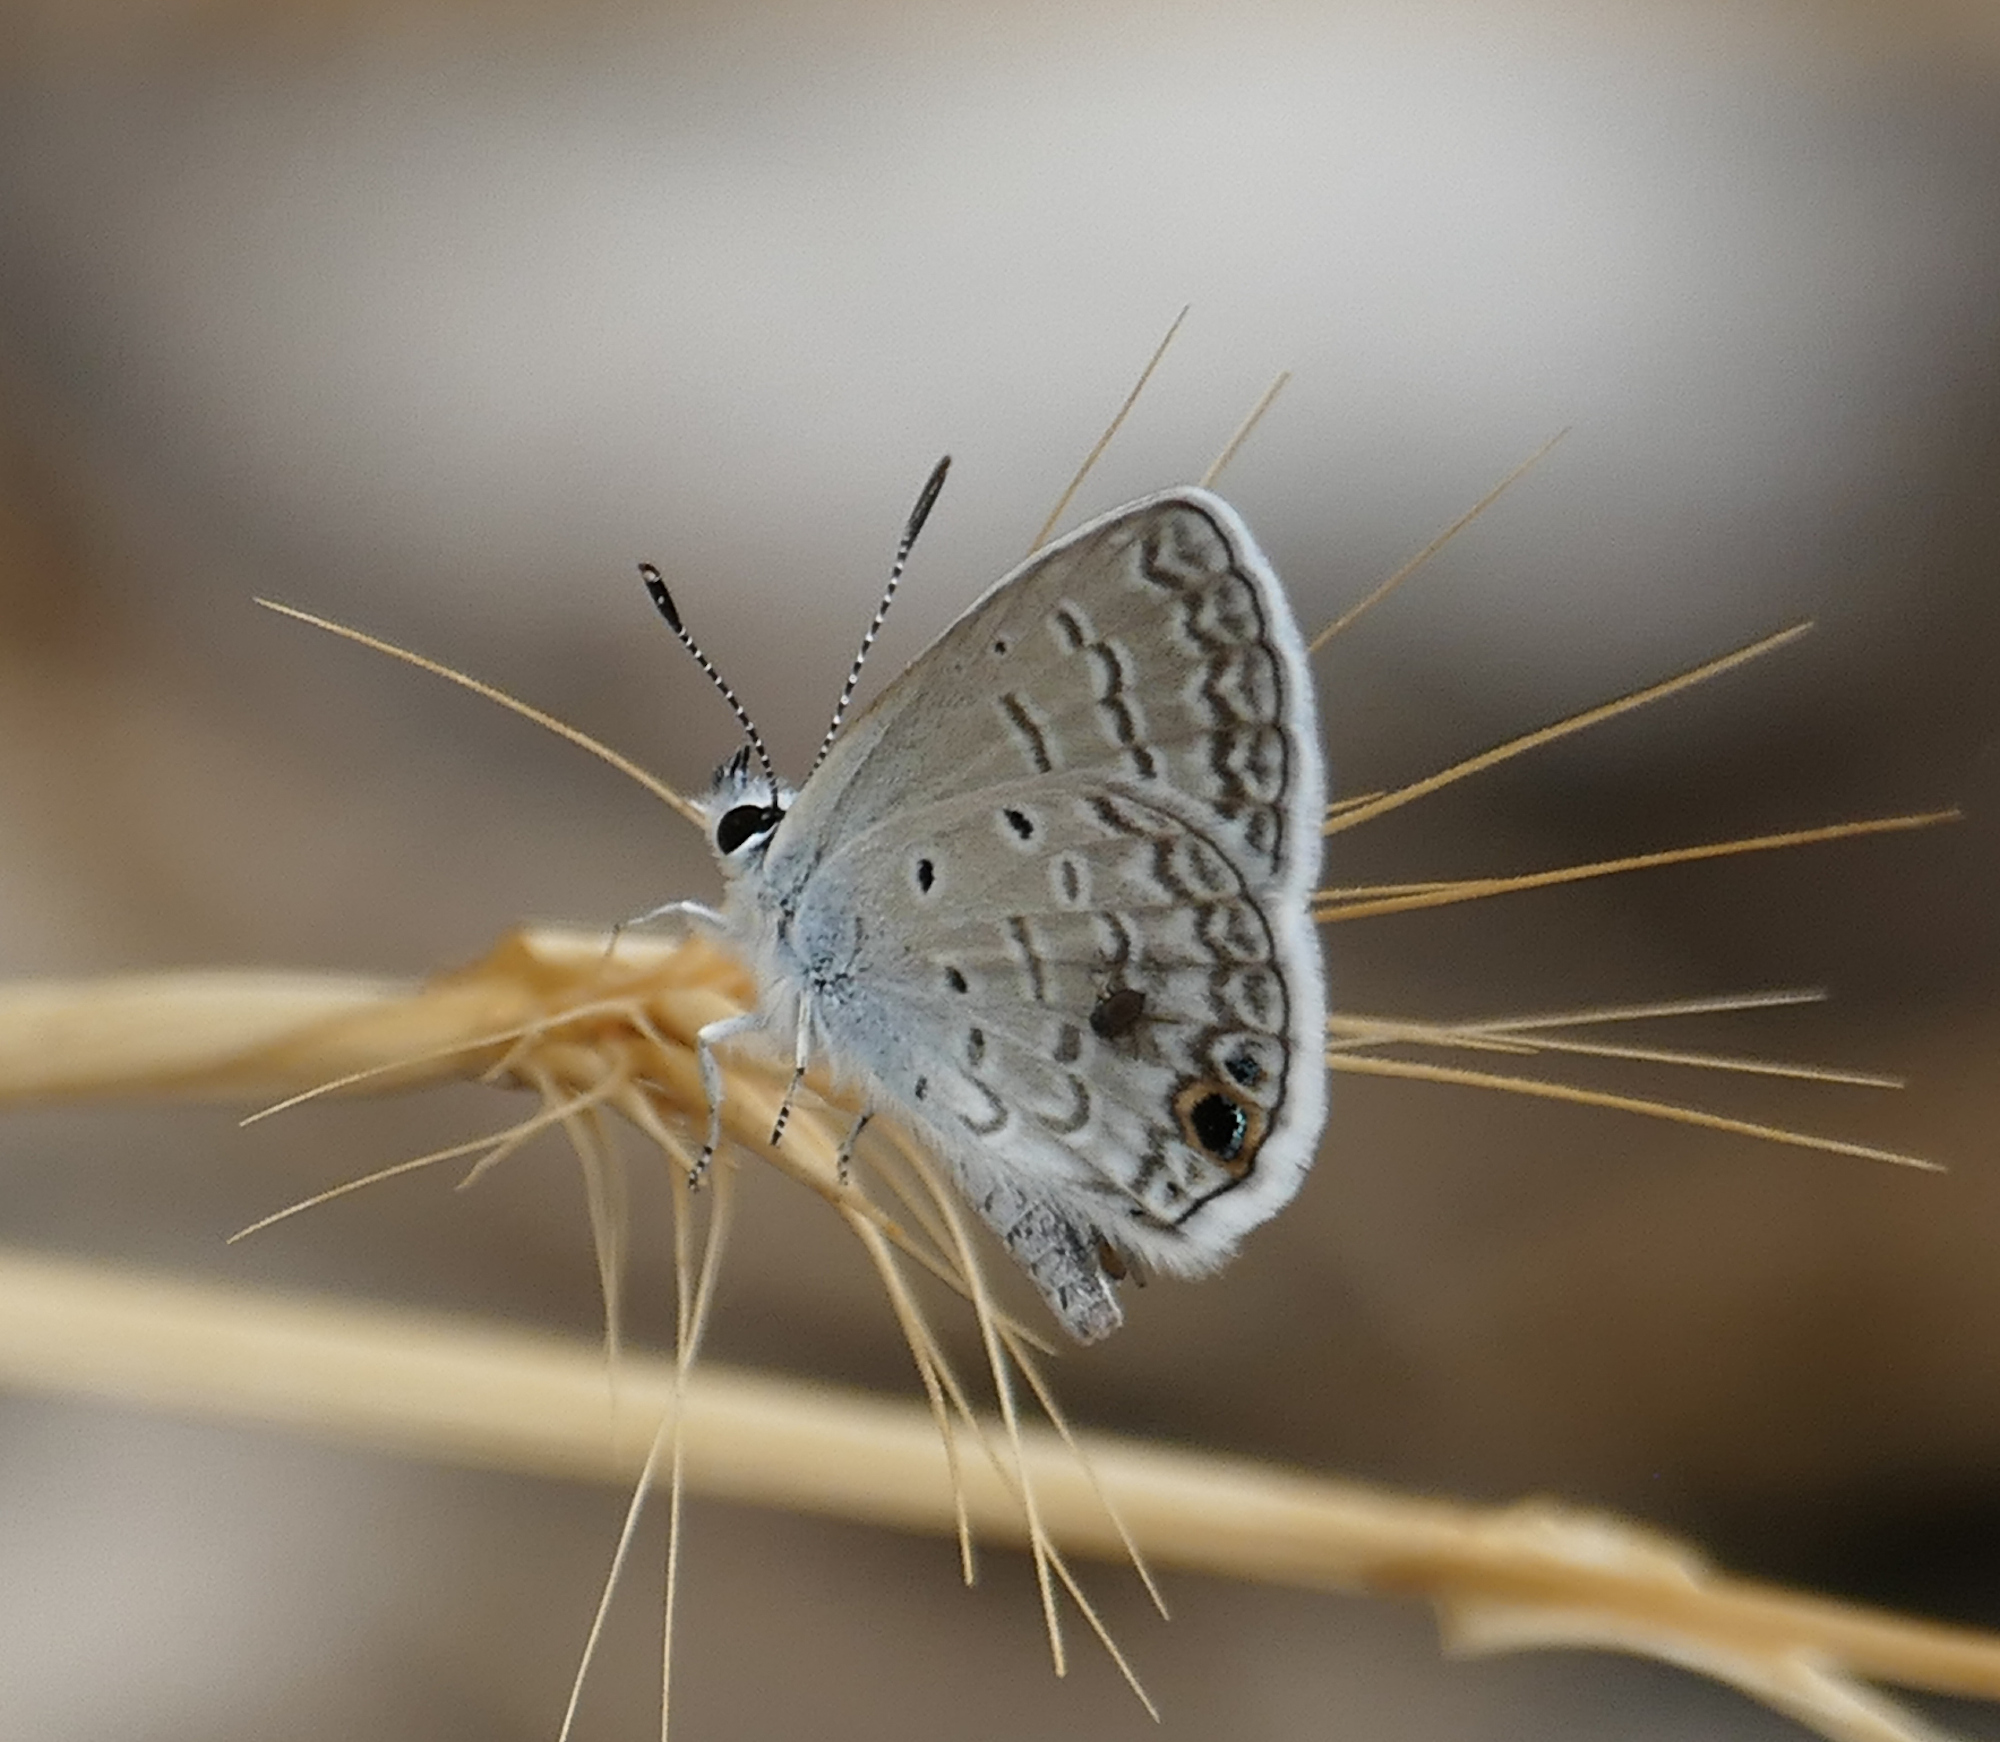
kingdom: Animalia
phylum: Arthropoda
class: Insecta
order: Lepidoptera
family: Lycaenidae
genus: Hemiargus
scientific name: Hemiargus ceraunus
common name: Ceraunus blue
